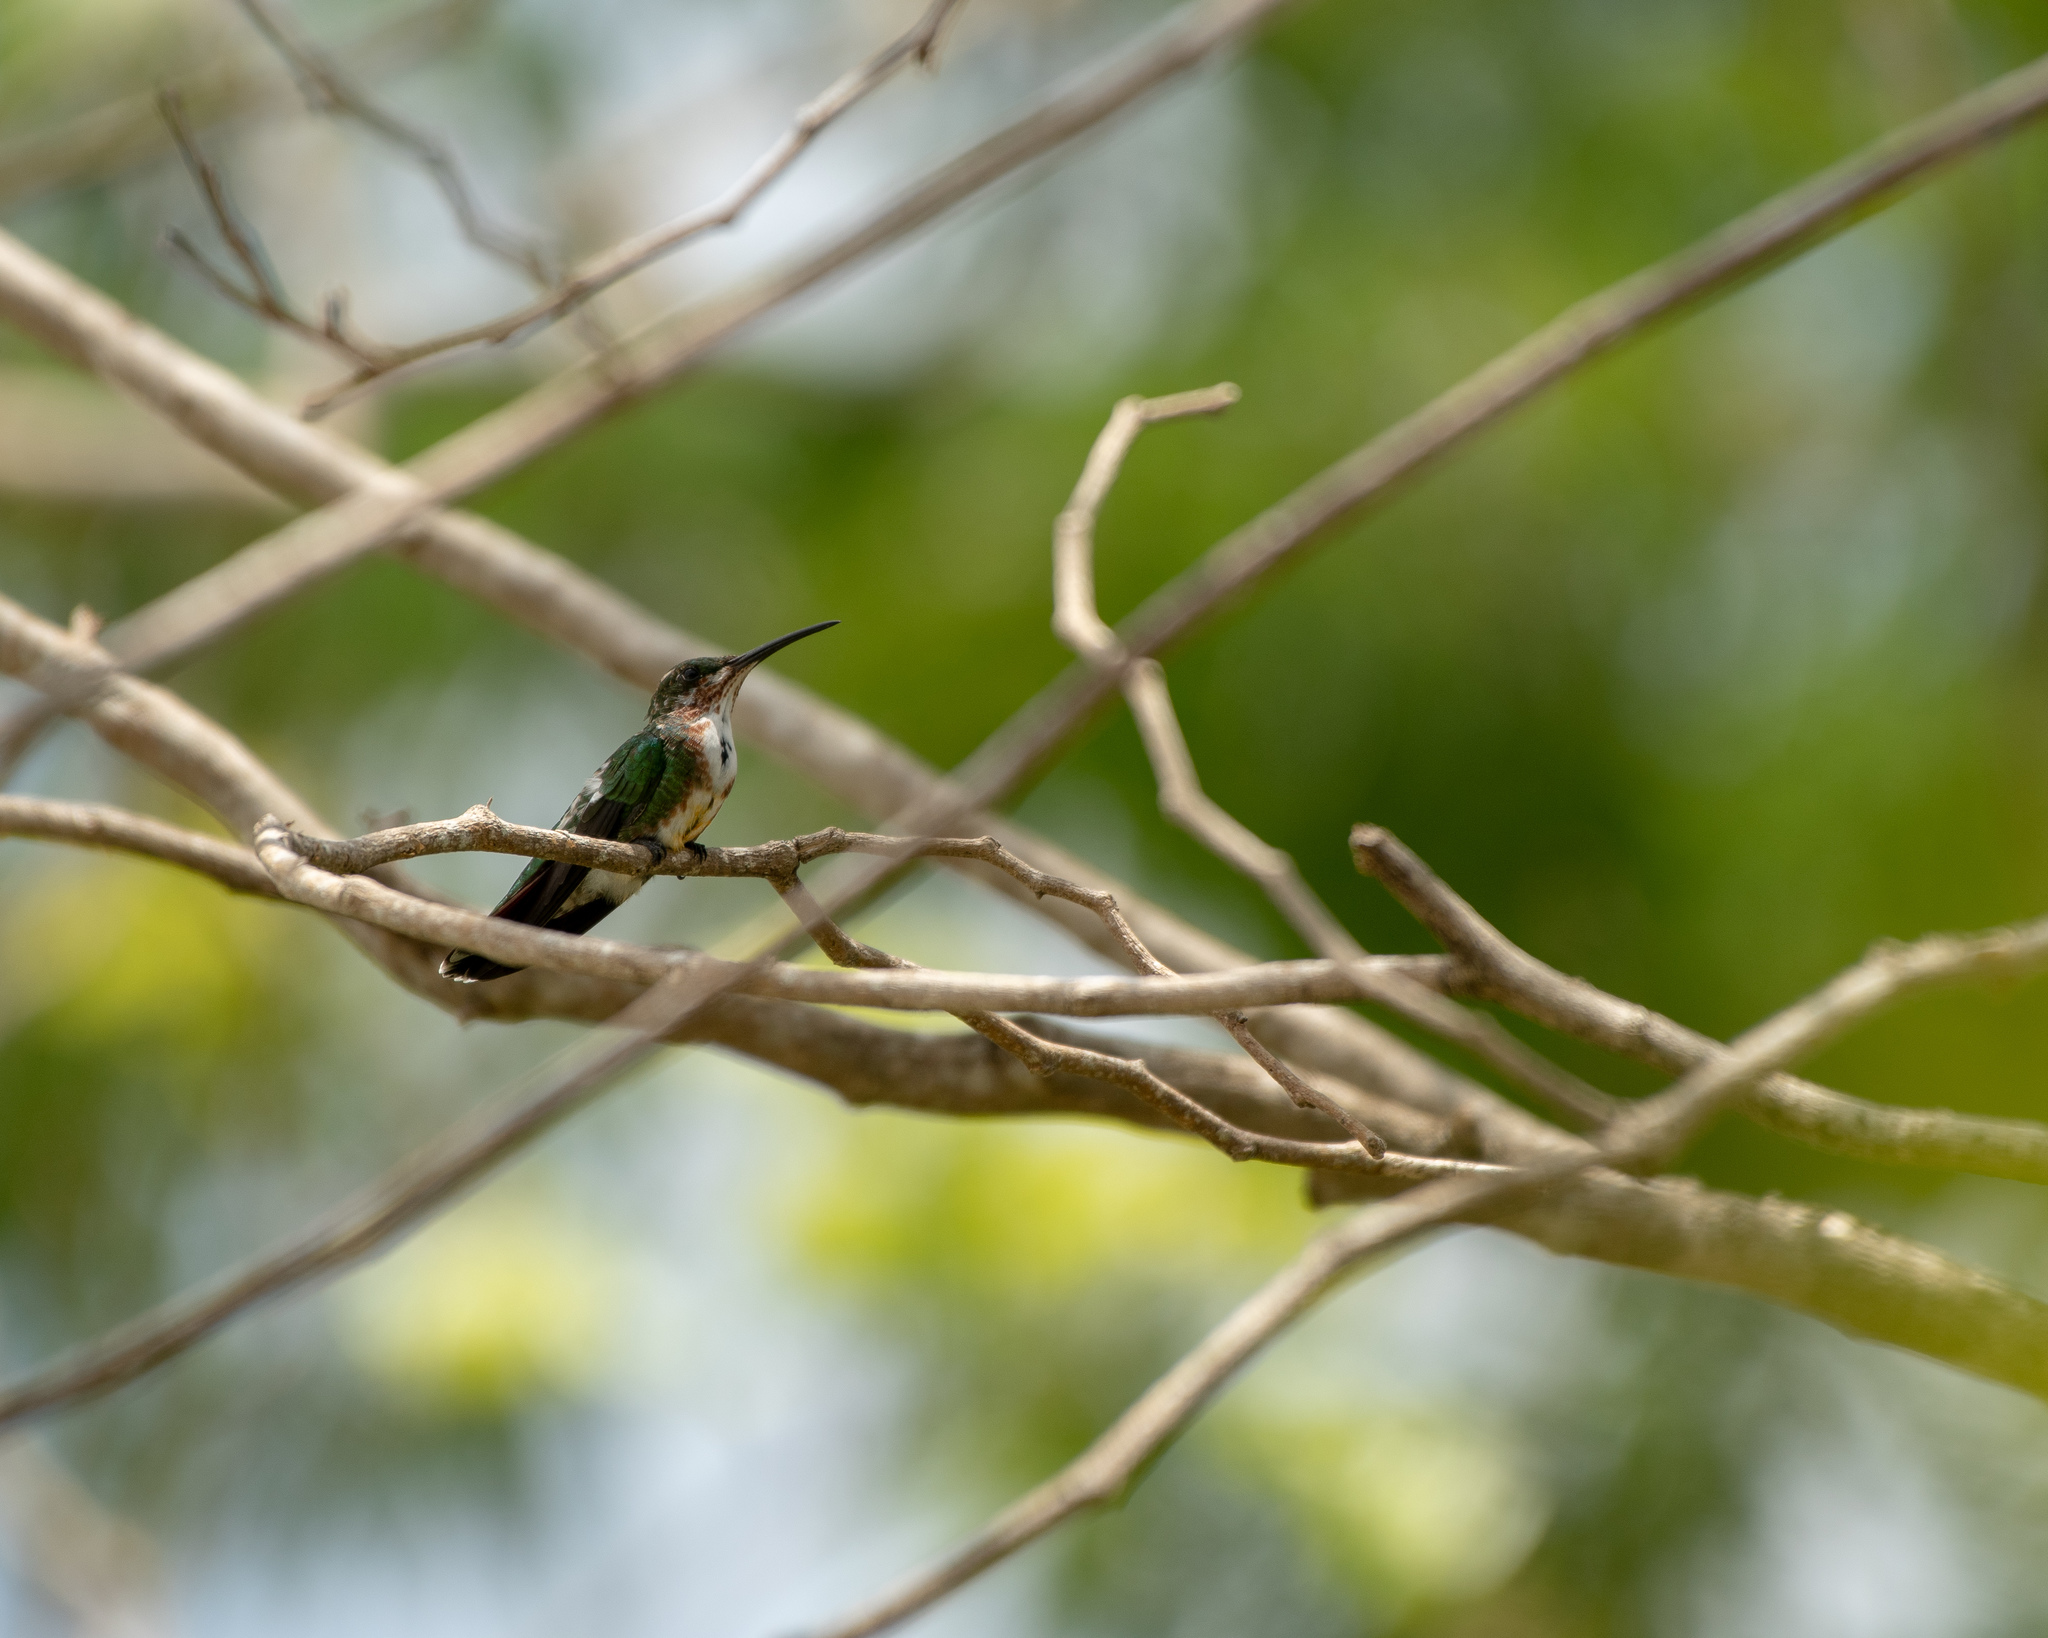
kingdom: Animalia
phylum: Chordata
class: Aves
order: Apodiformes
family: Trochilidae
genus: Anthracothorax
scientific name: Anthracothorax prevostii
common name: Green-breasted mango
